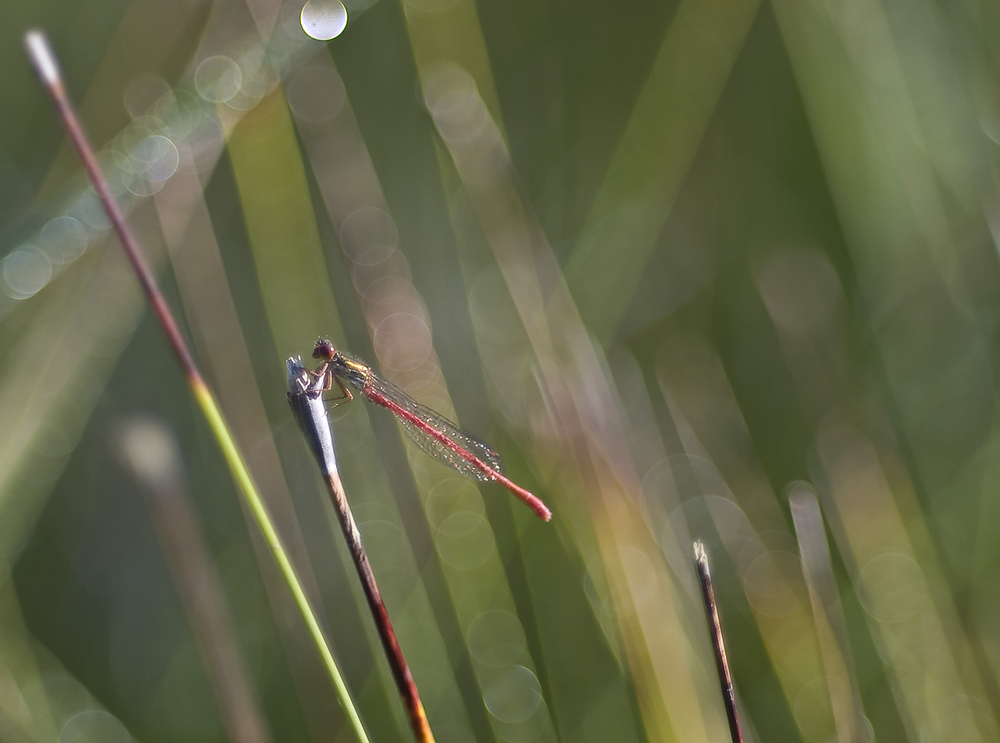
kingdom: Animalia
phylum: Arthropoda
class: Insecta
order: Odonata
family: Coenagrionidae
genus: Ceriagrion
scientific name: Ceriagrion tenellum
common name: Small red damselfly
